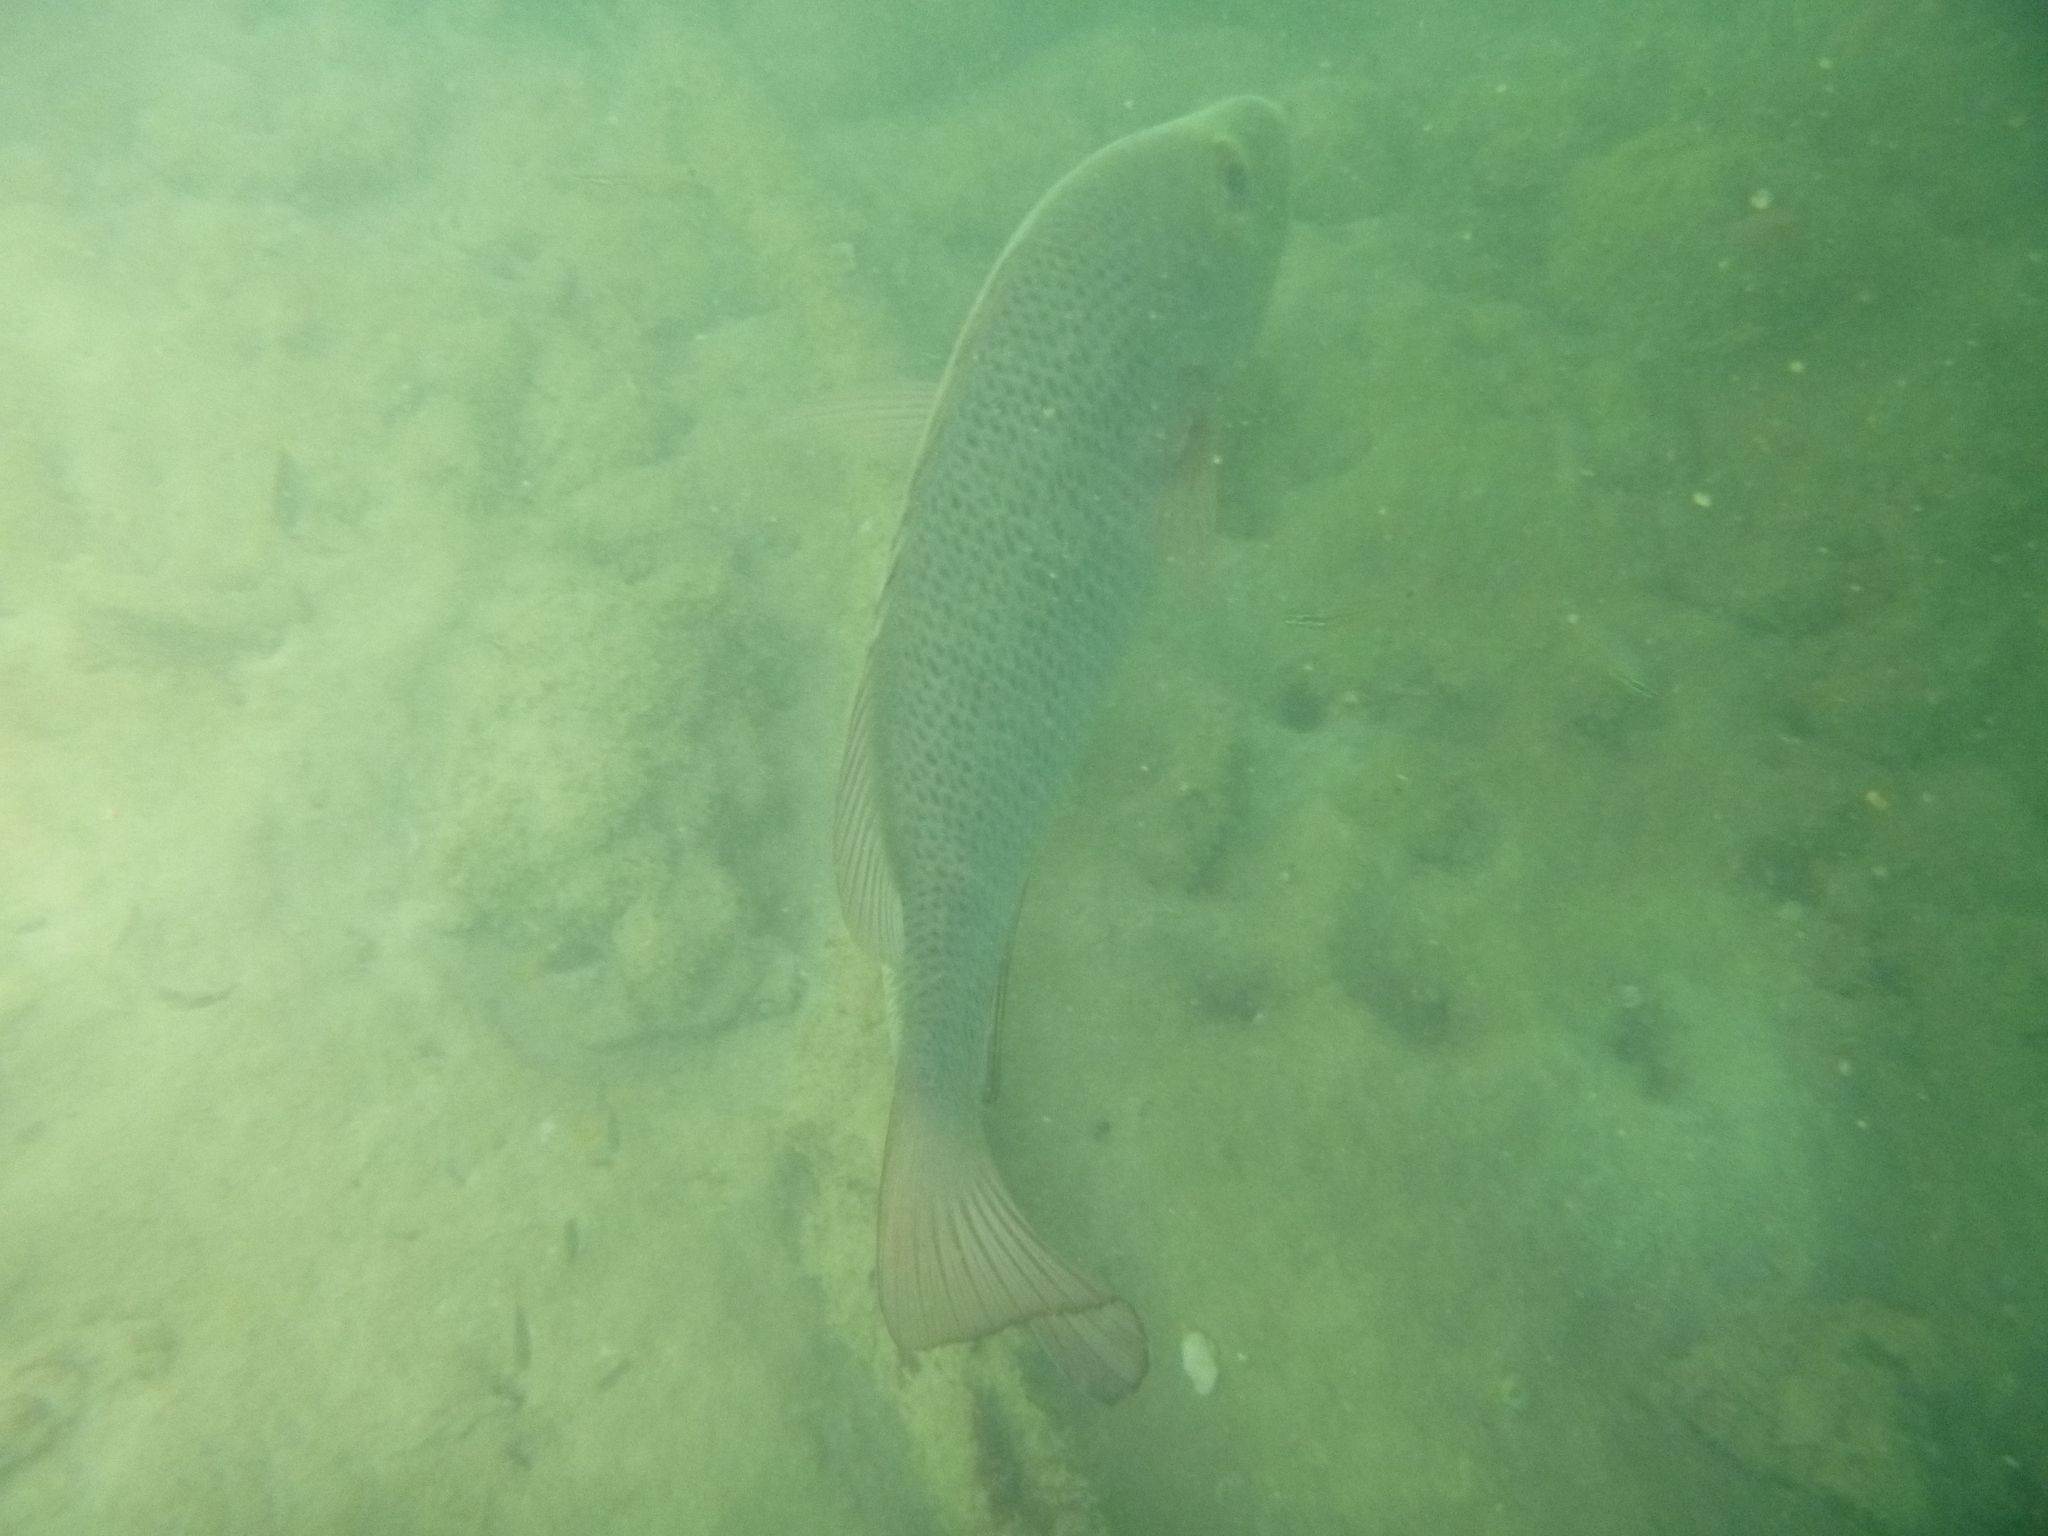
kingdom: Animalia
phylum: Chordata
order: Perciformes
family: Lutjanidae
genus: Lutjanus
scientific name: Lutjanus argentimaculatus
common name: Mangrove red snapper
